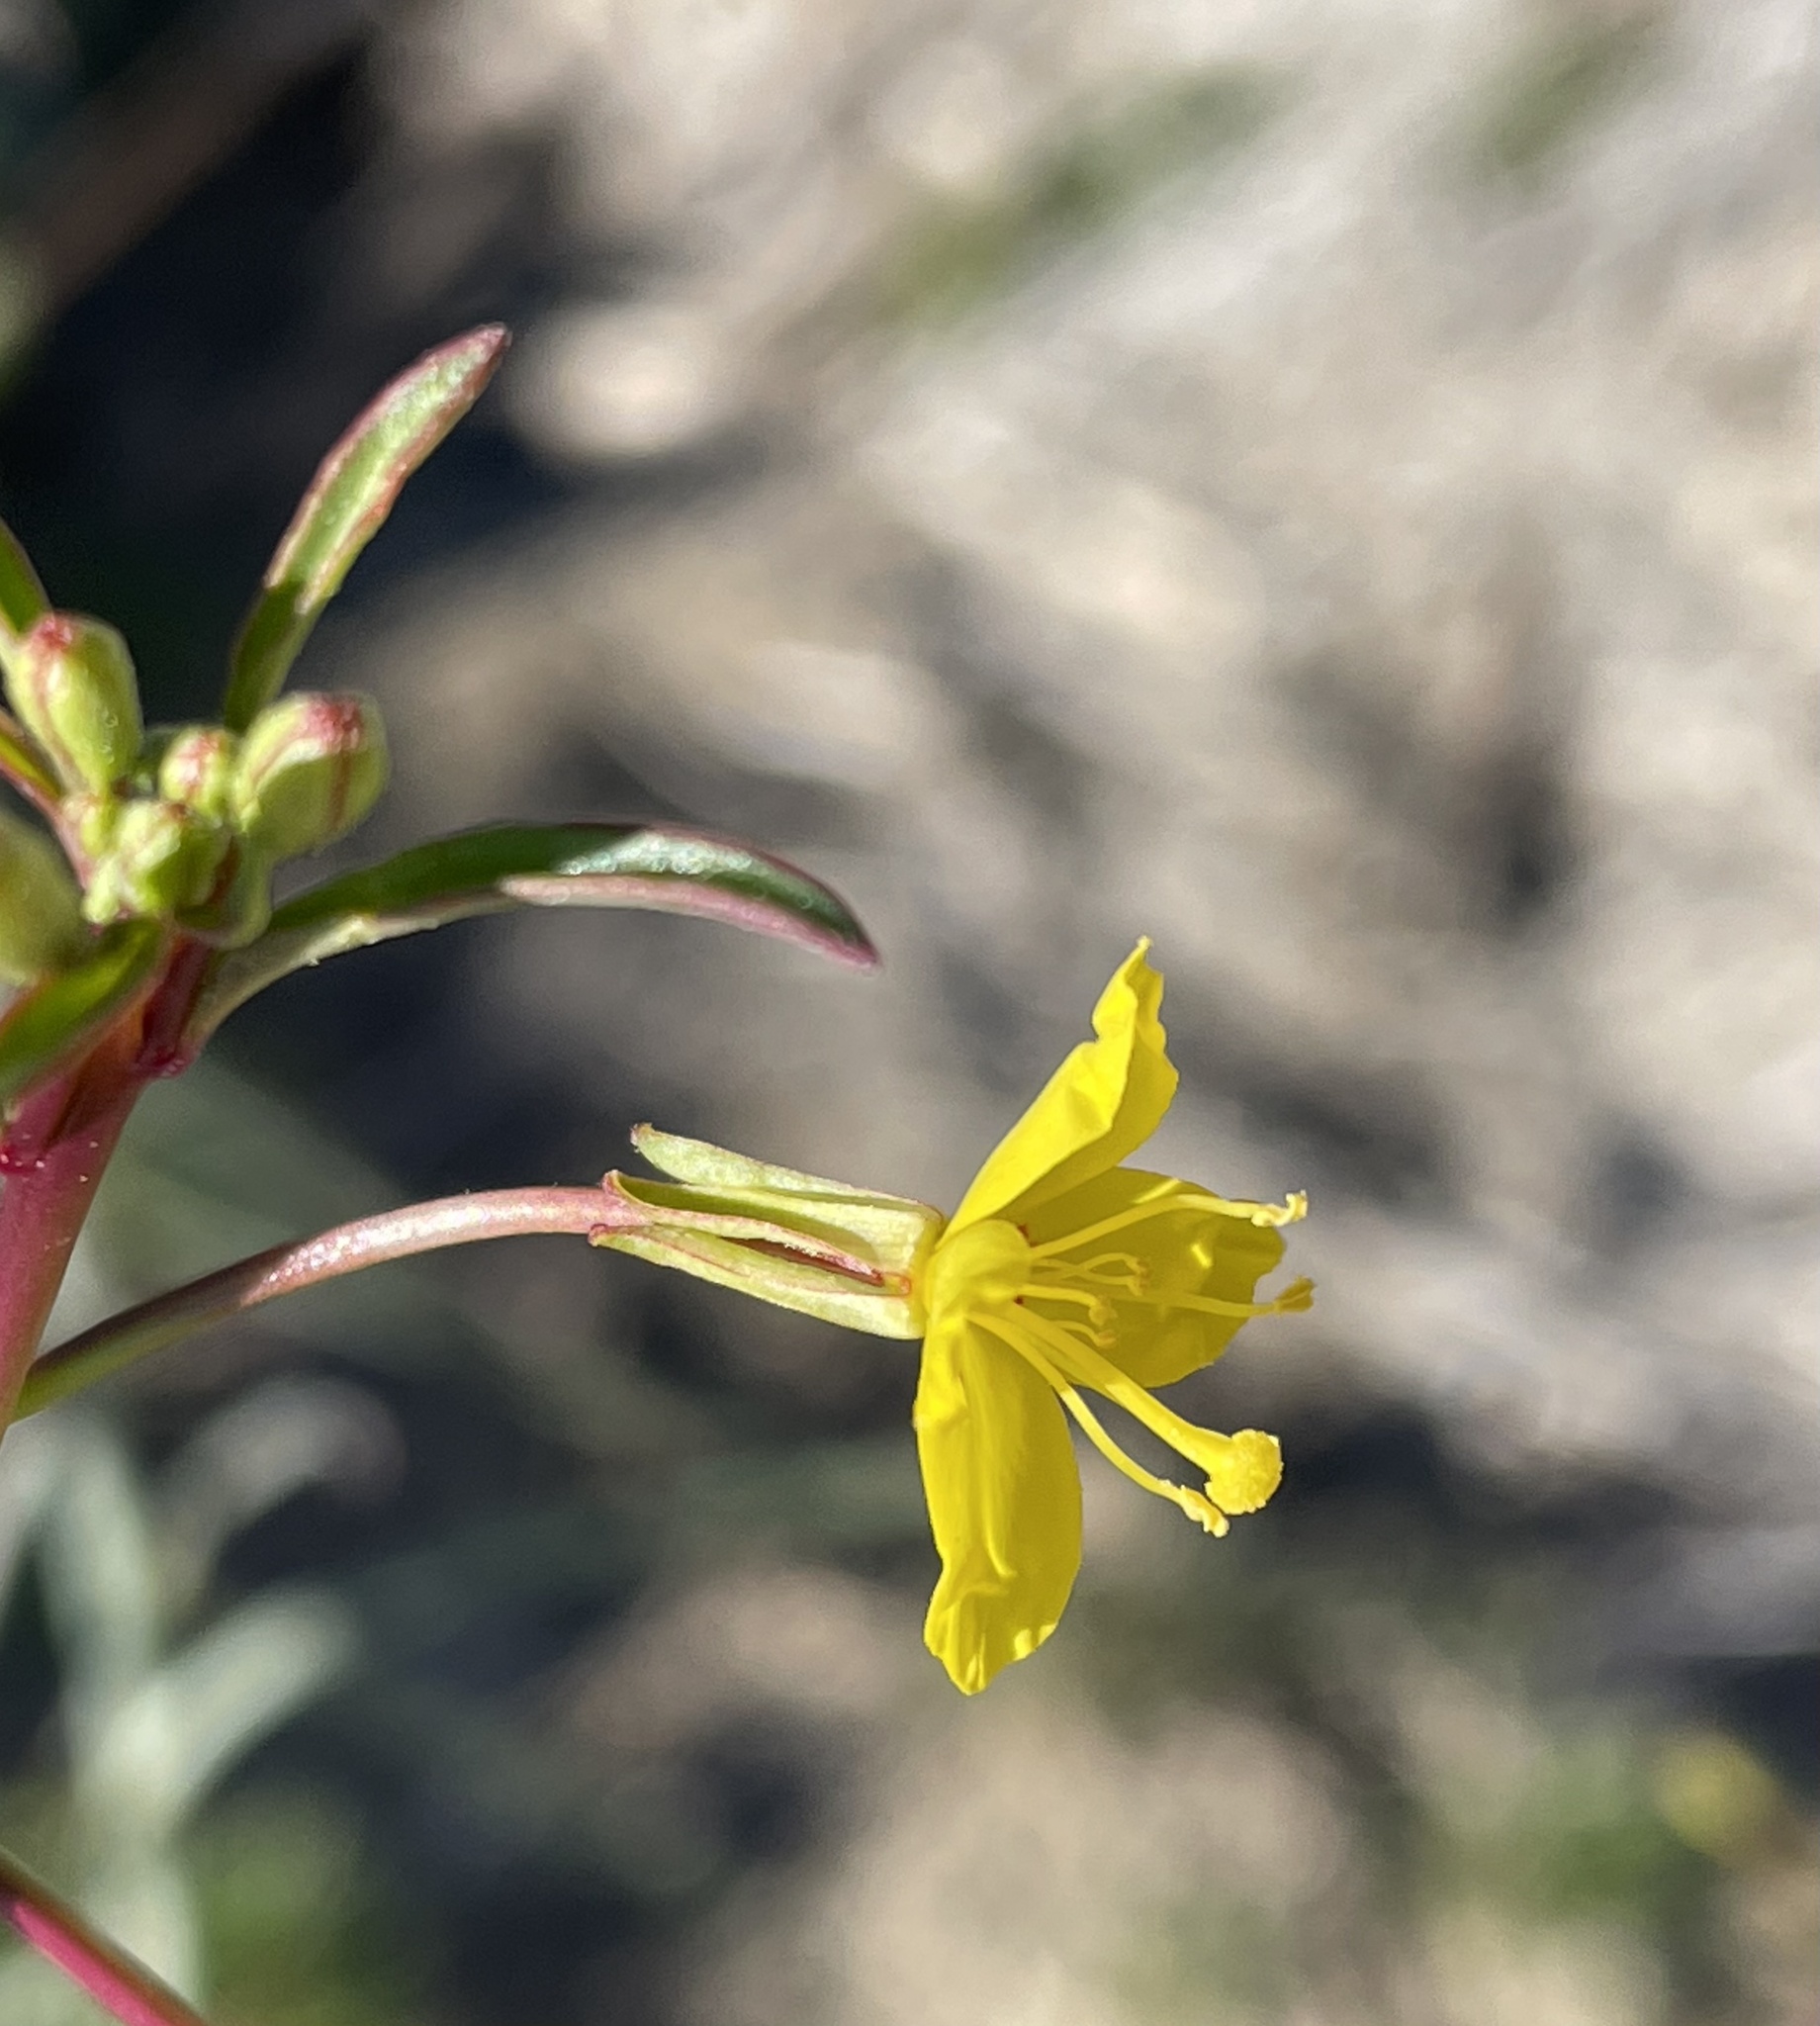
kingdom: Plantae
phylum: Tracheophyta
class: Magnoliopsida
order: Myrtales
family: Onagraceae
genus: Eulobus
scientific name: Eulobus californicus
